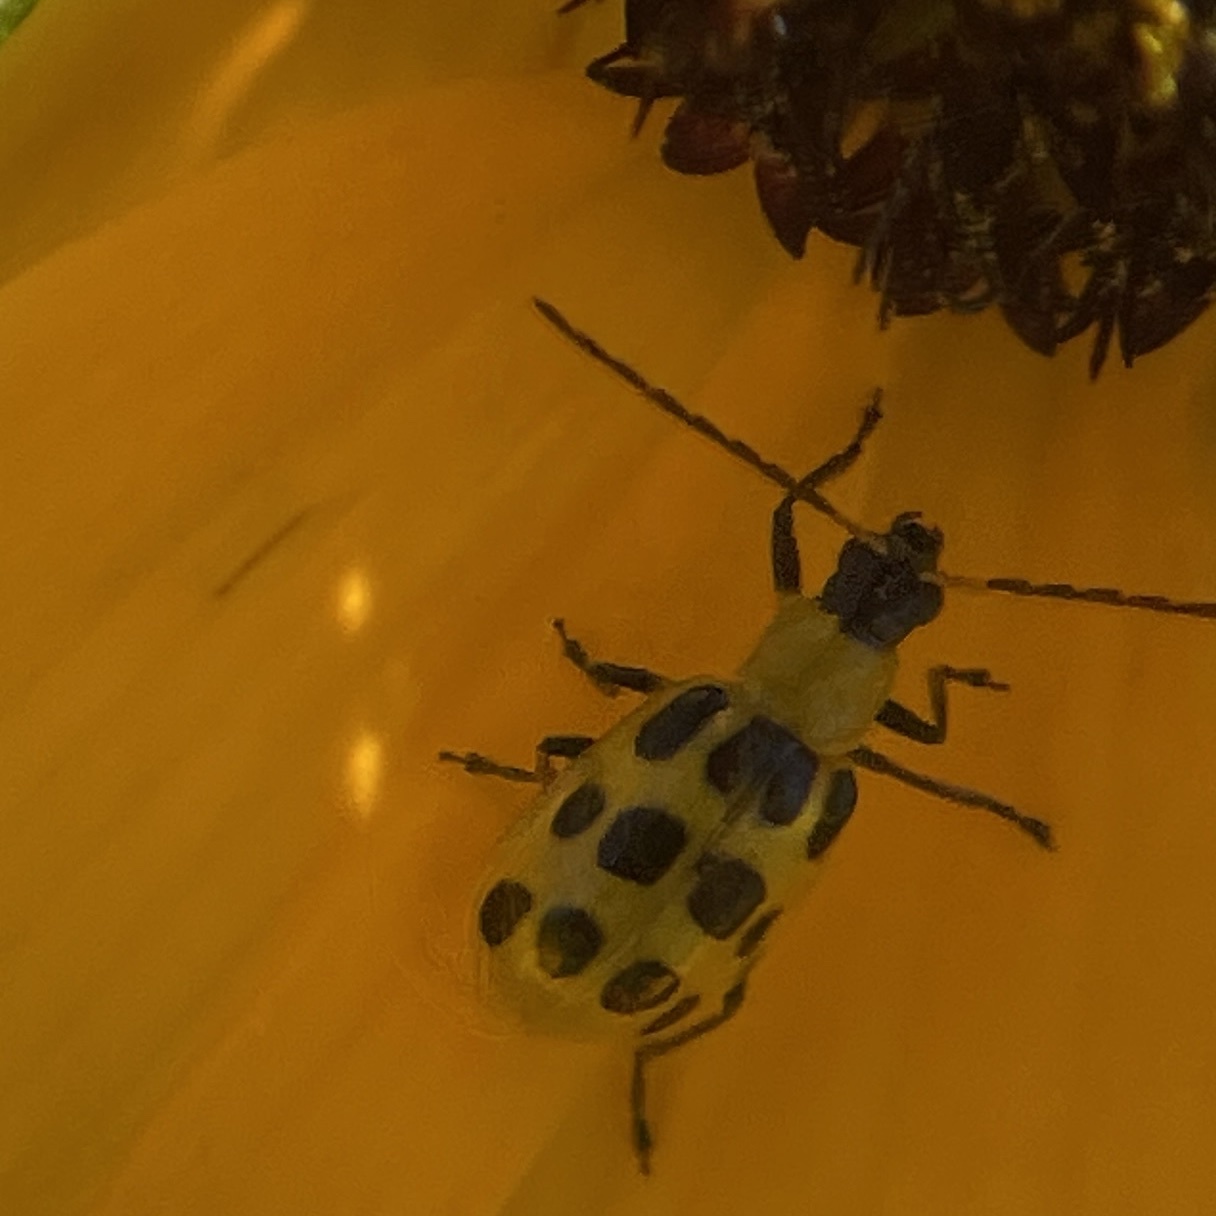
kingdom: Animalia
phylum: Arthropoda
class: Insecta
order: Coleoptera
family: Chrysomelidae
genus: Diabrotica
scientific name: Diabrotica undecimpunctata
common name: Spotted cucumber beetle
